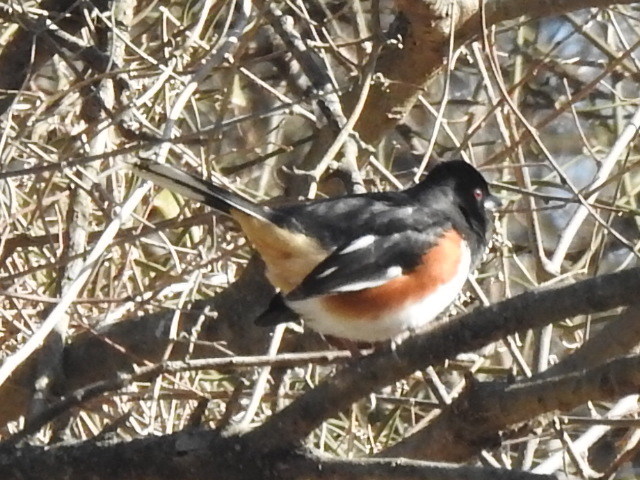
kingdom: Animalia
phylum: Chordata
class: Aves
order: Passeriformes
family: Passerellidae
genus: Pipilo
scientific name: Pipilo erythrophthalmus
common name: Eastern towhee
